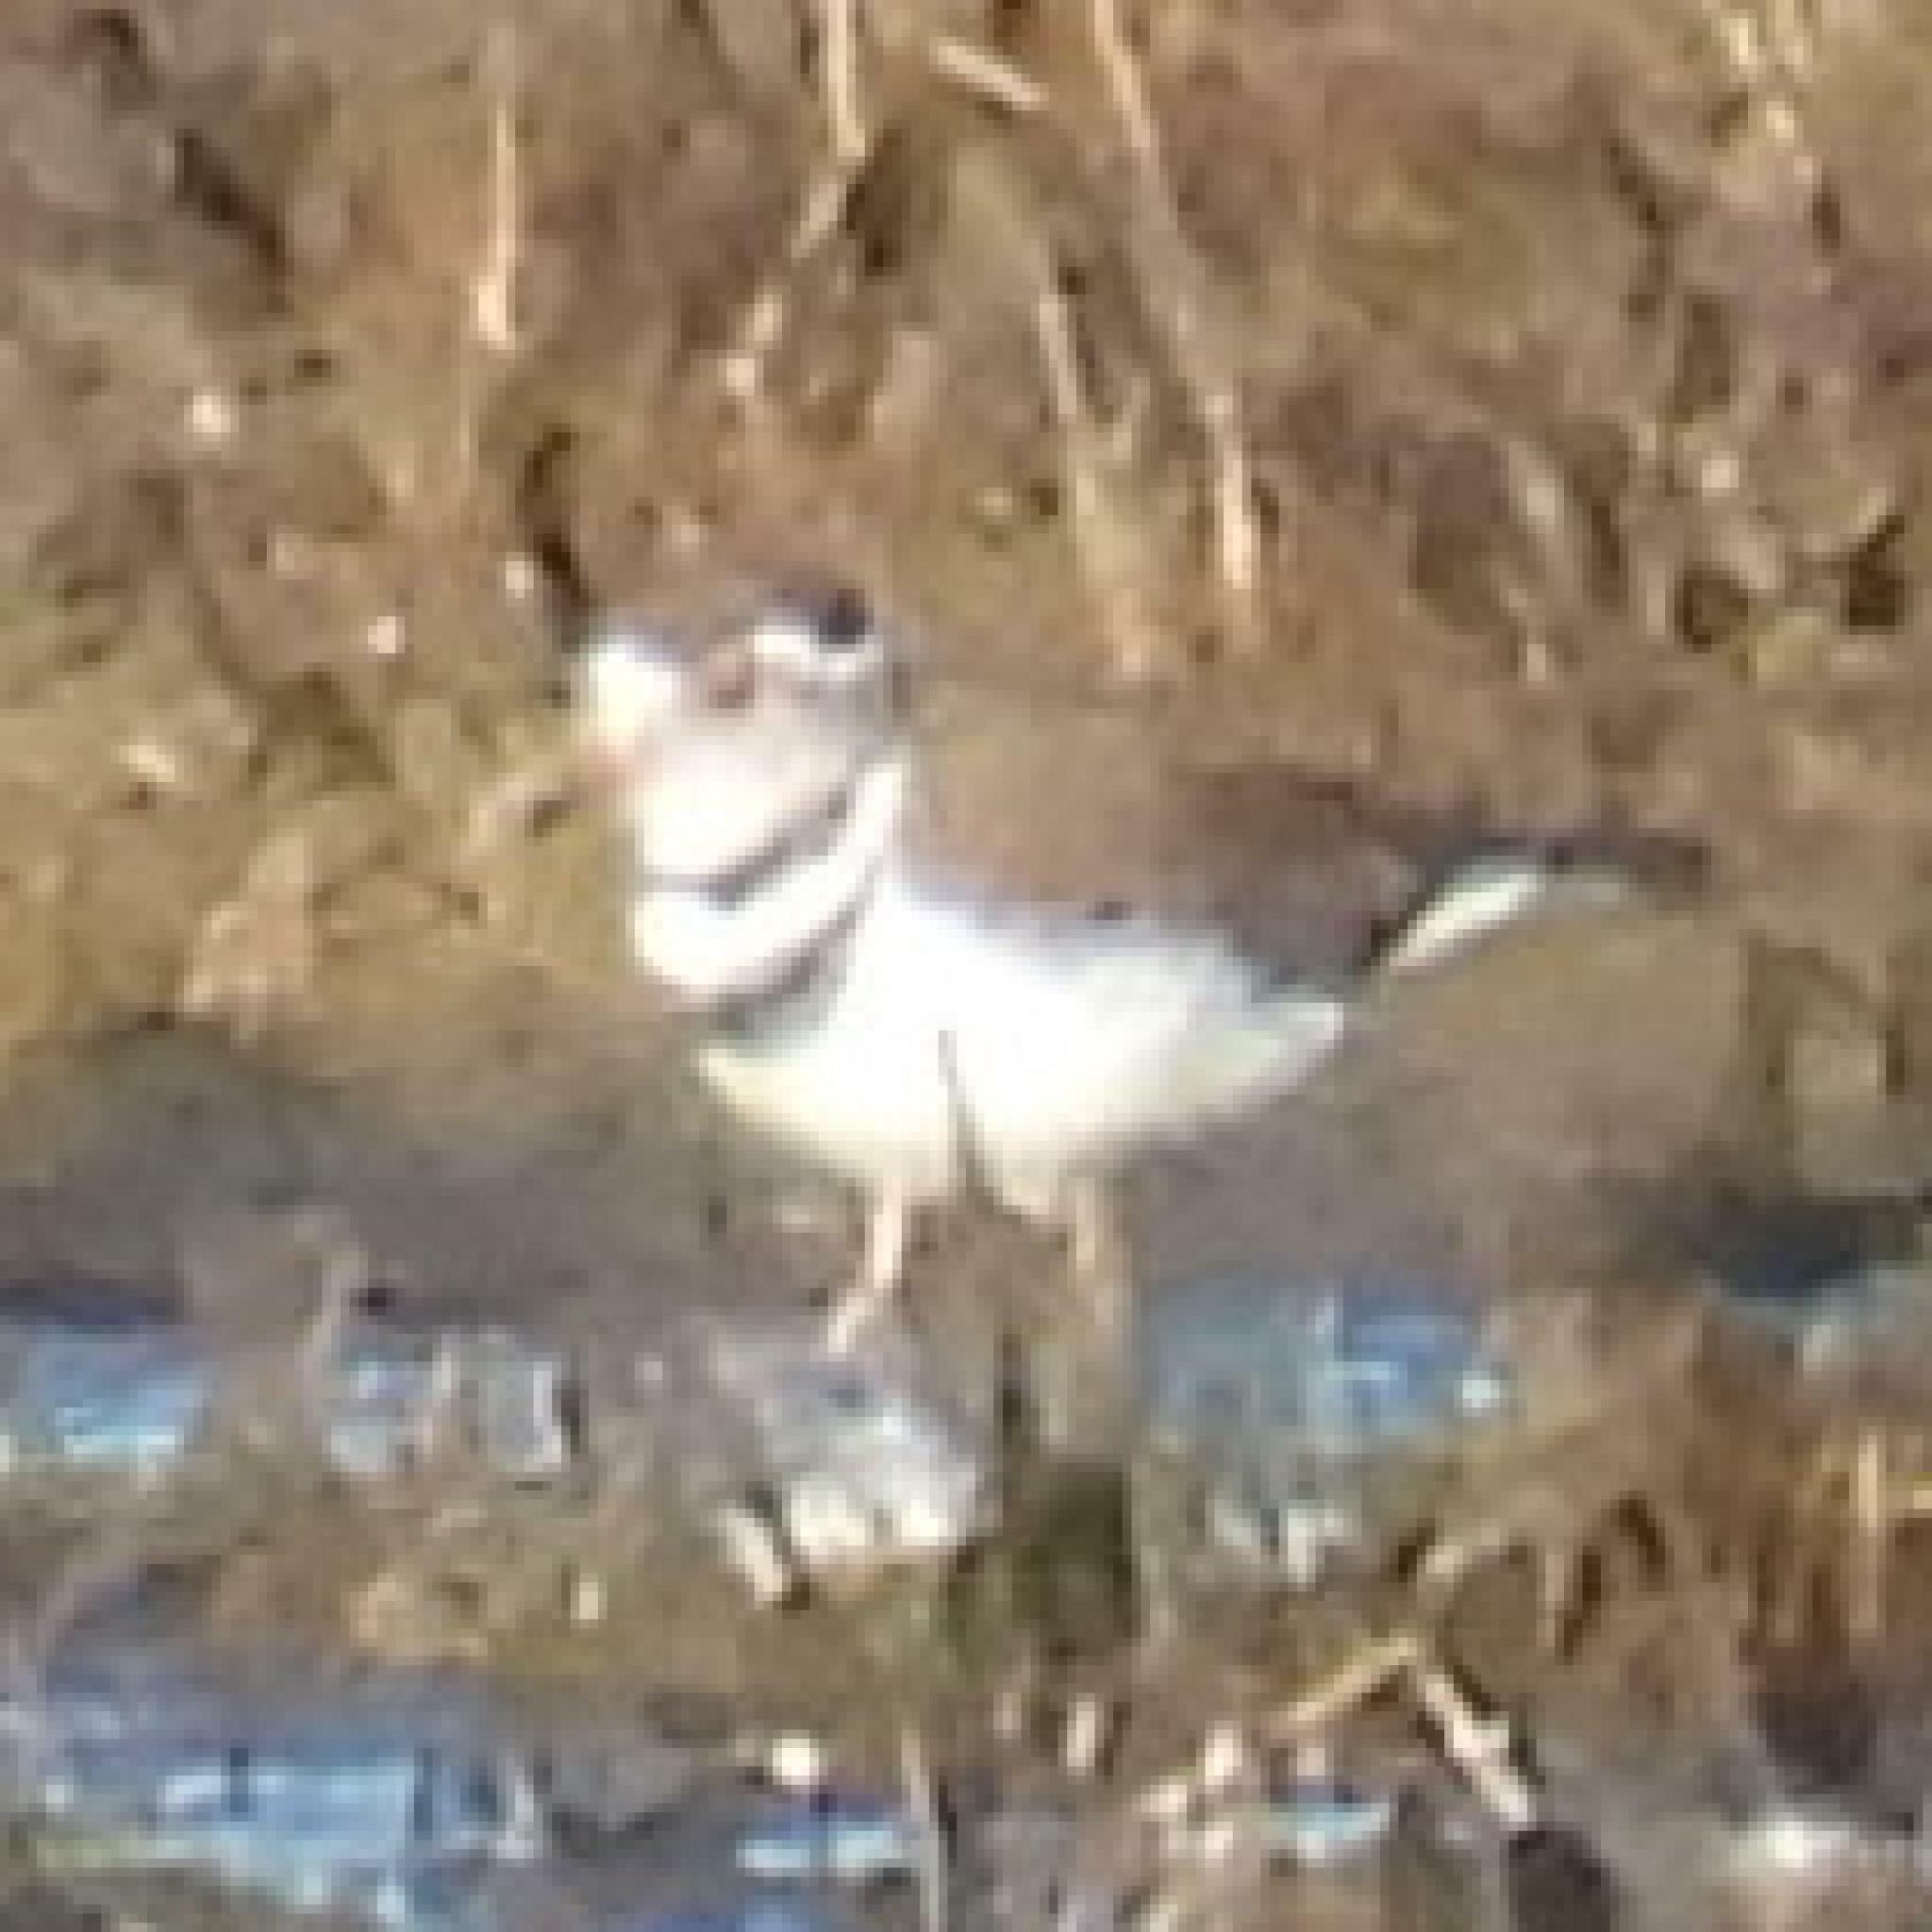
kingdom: Animalia
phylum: Chordata
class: Aves
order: Charadriiformes
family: Charadriidae
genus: Charadrius
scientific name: Charadrius tricollaris
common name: Three-banded plover
